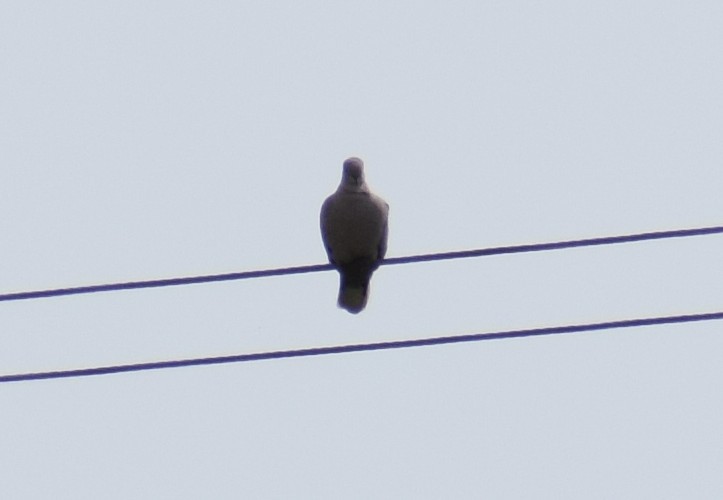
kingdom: Animalia
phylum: Chordata
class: Aves
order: Columbiformes
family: Columbidae
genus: Streptopelia
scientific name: Streptopelia decaocto
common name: Eurasian collared dove
